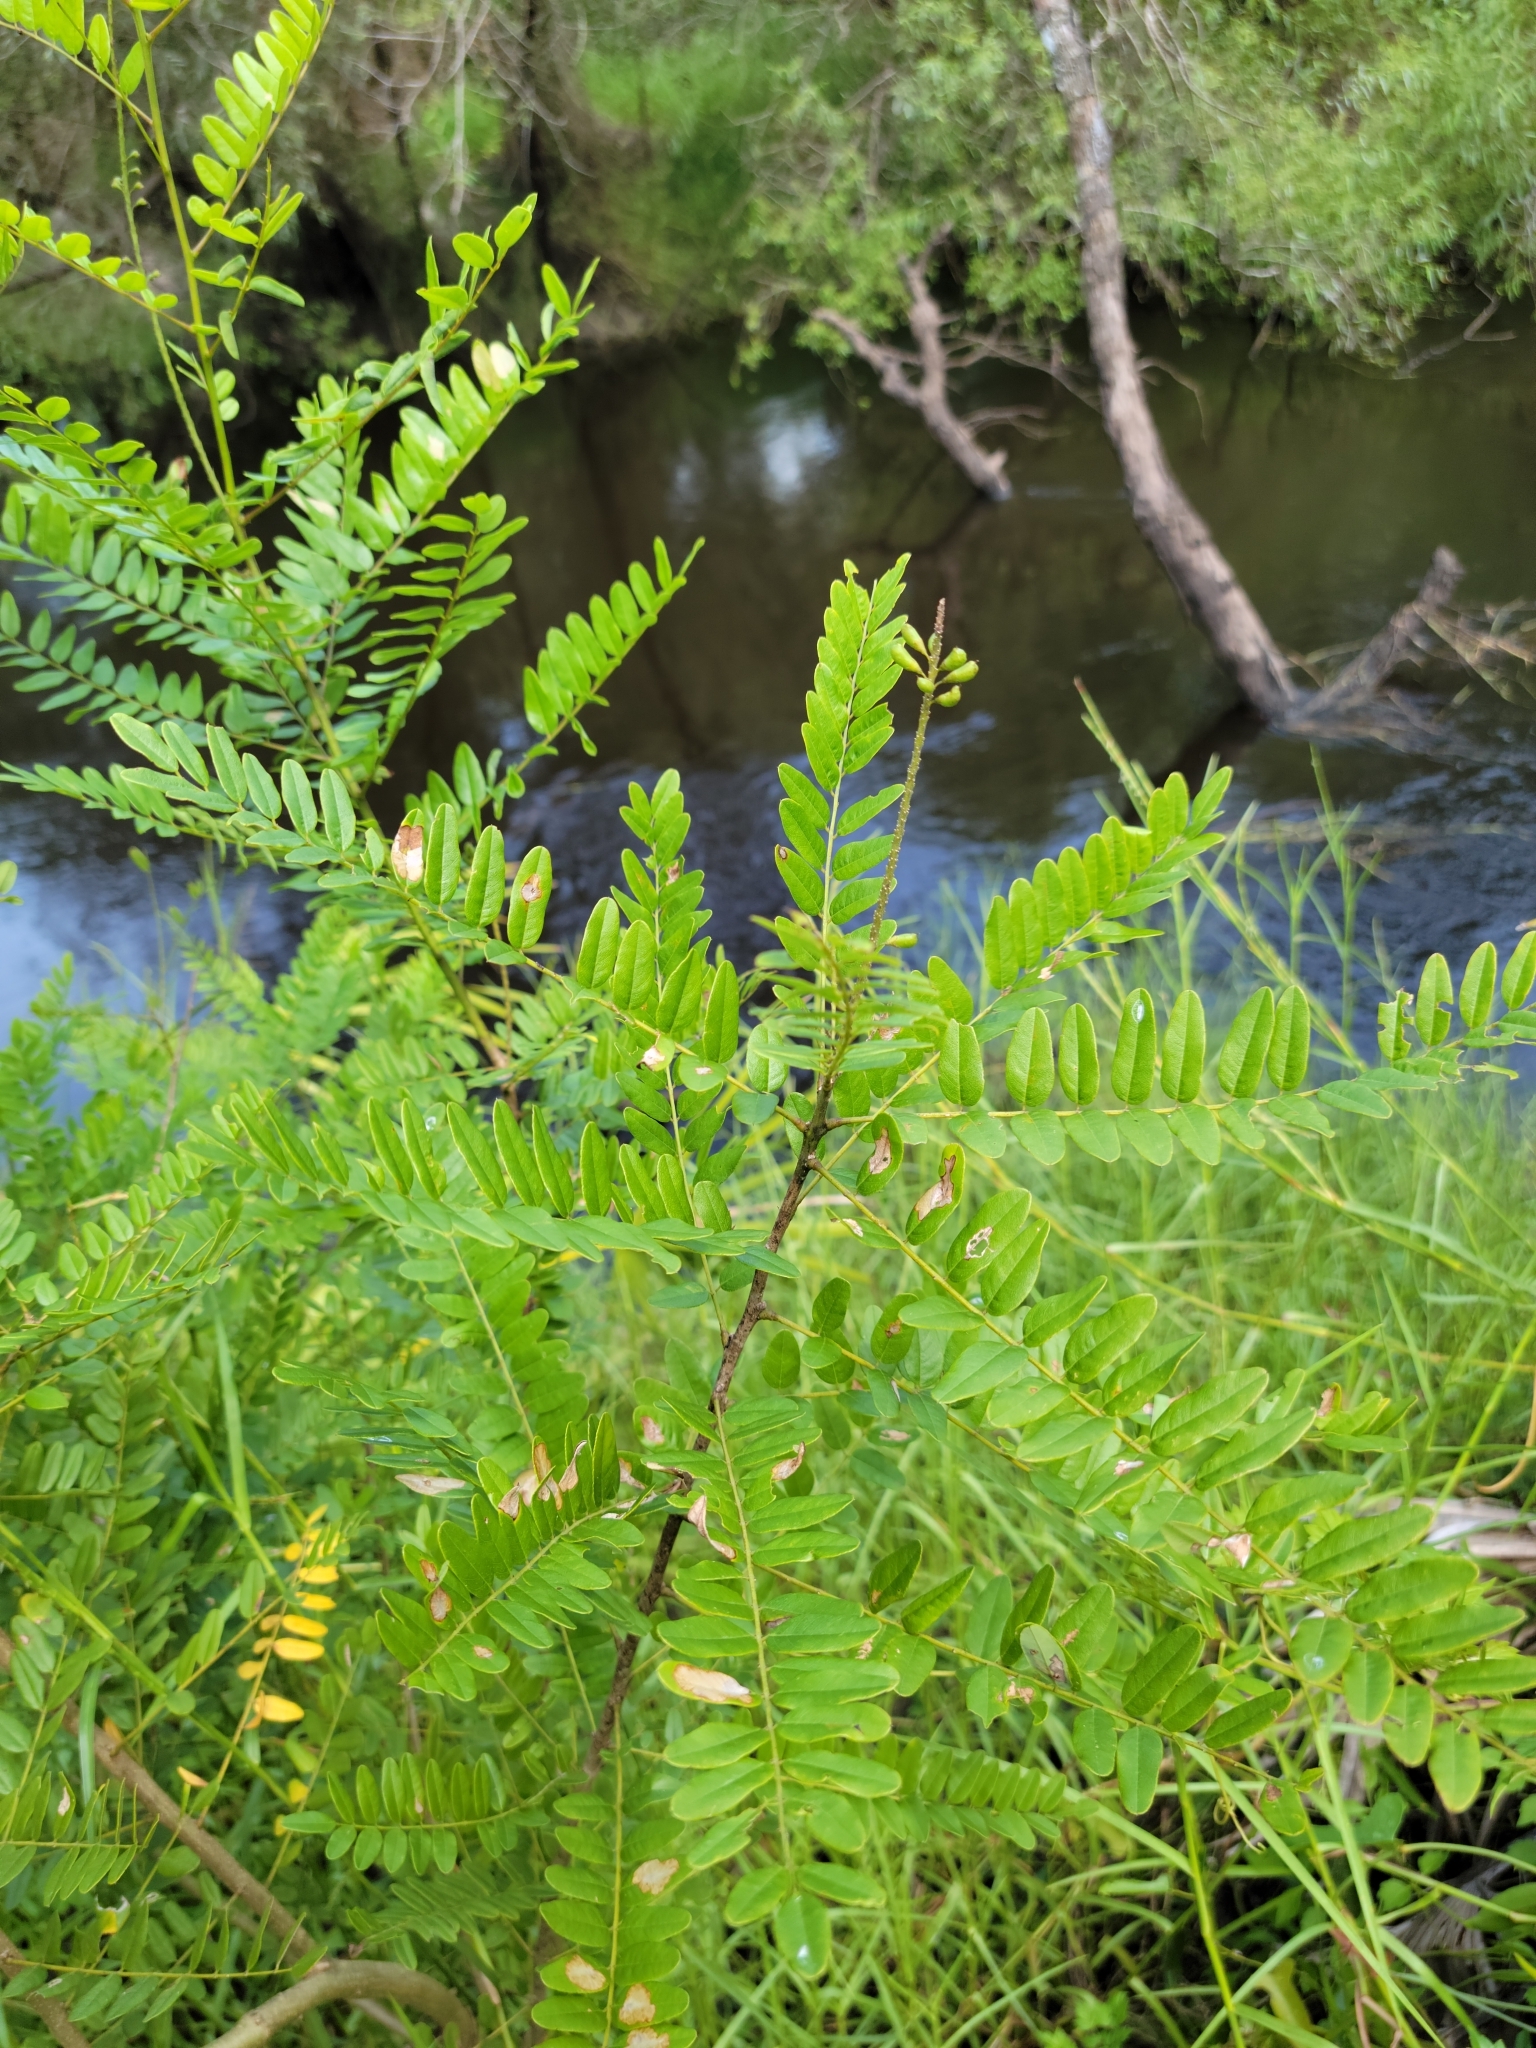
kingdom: Plantae
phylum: Tracheophyta
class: Magnoliopsida
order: Fabales
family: Fabaceae
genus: Amorpha
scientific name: Amorpha fruticosa
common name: False indigo
